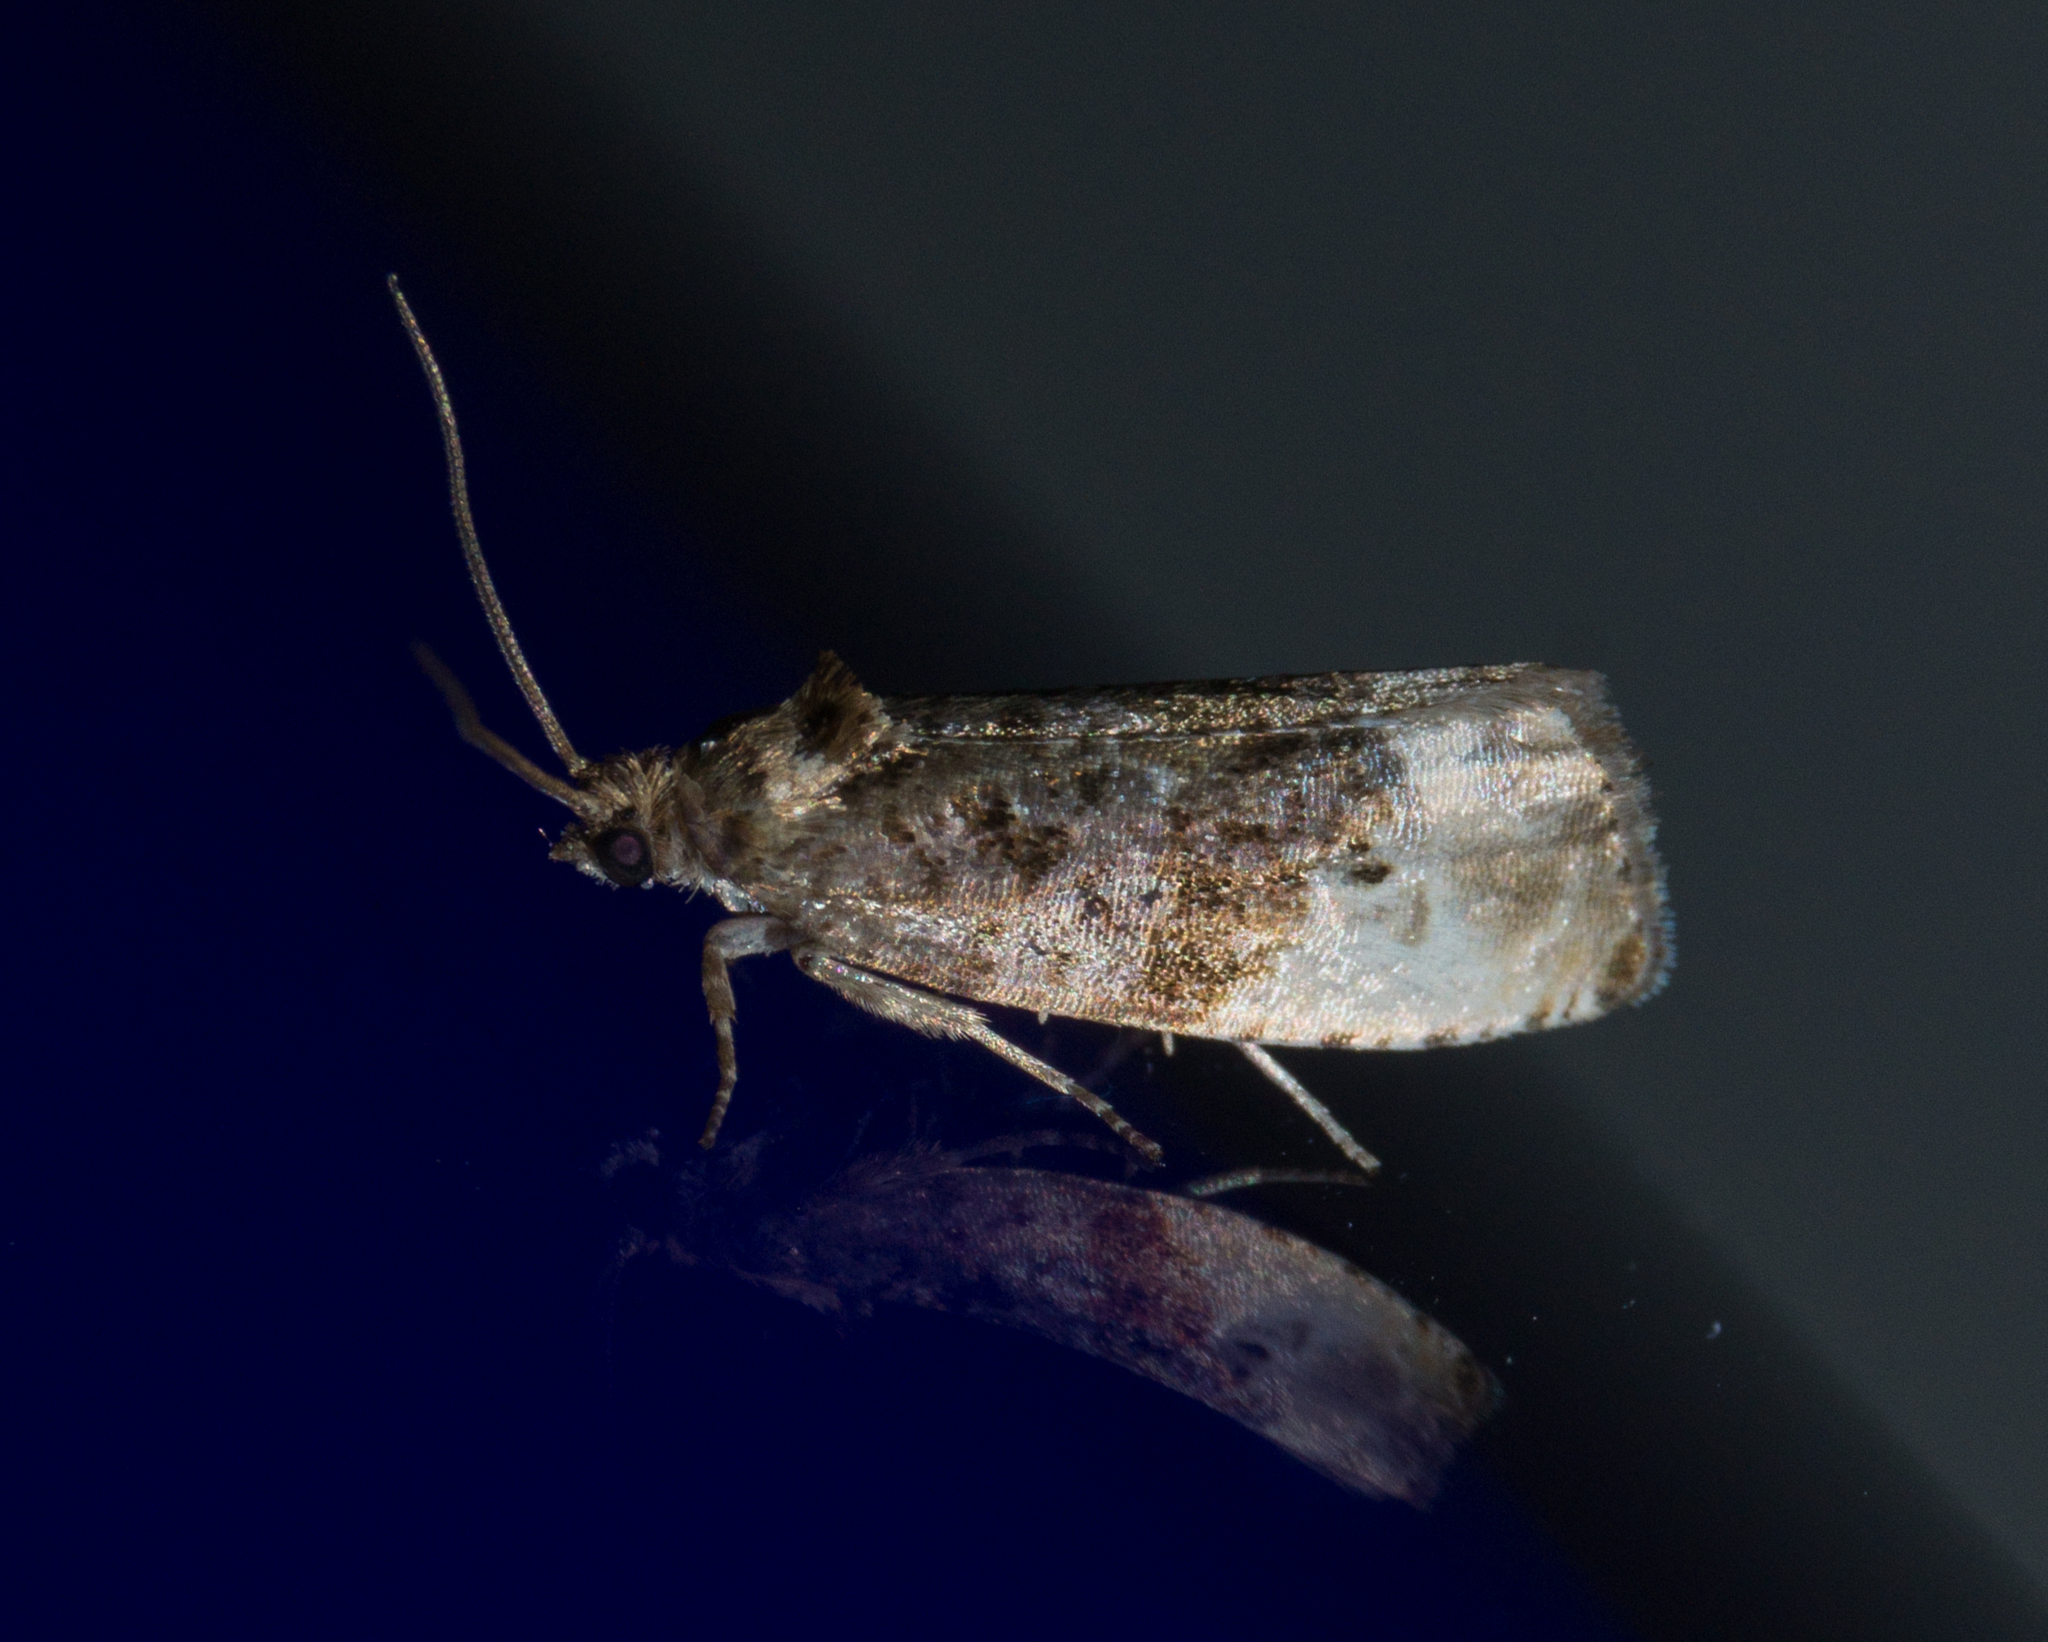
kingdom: Animalia
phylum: Arthropoda
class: Insecta
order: Lepidoptera
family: Tortricidae
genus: Hedya
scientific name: Hedya nubiferana
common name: Marbled orchard tortrix
